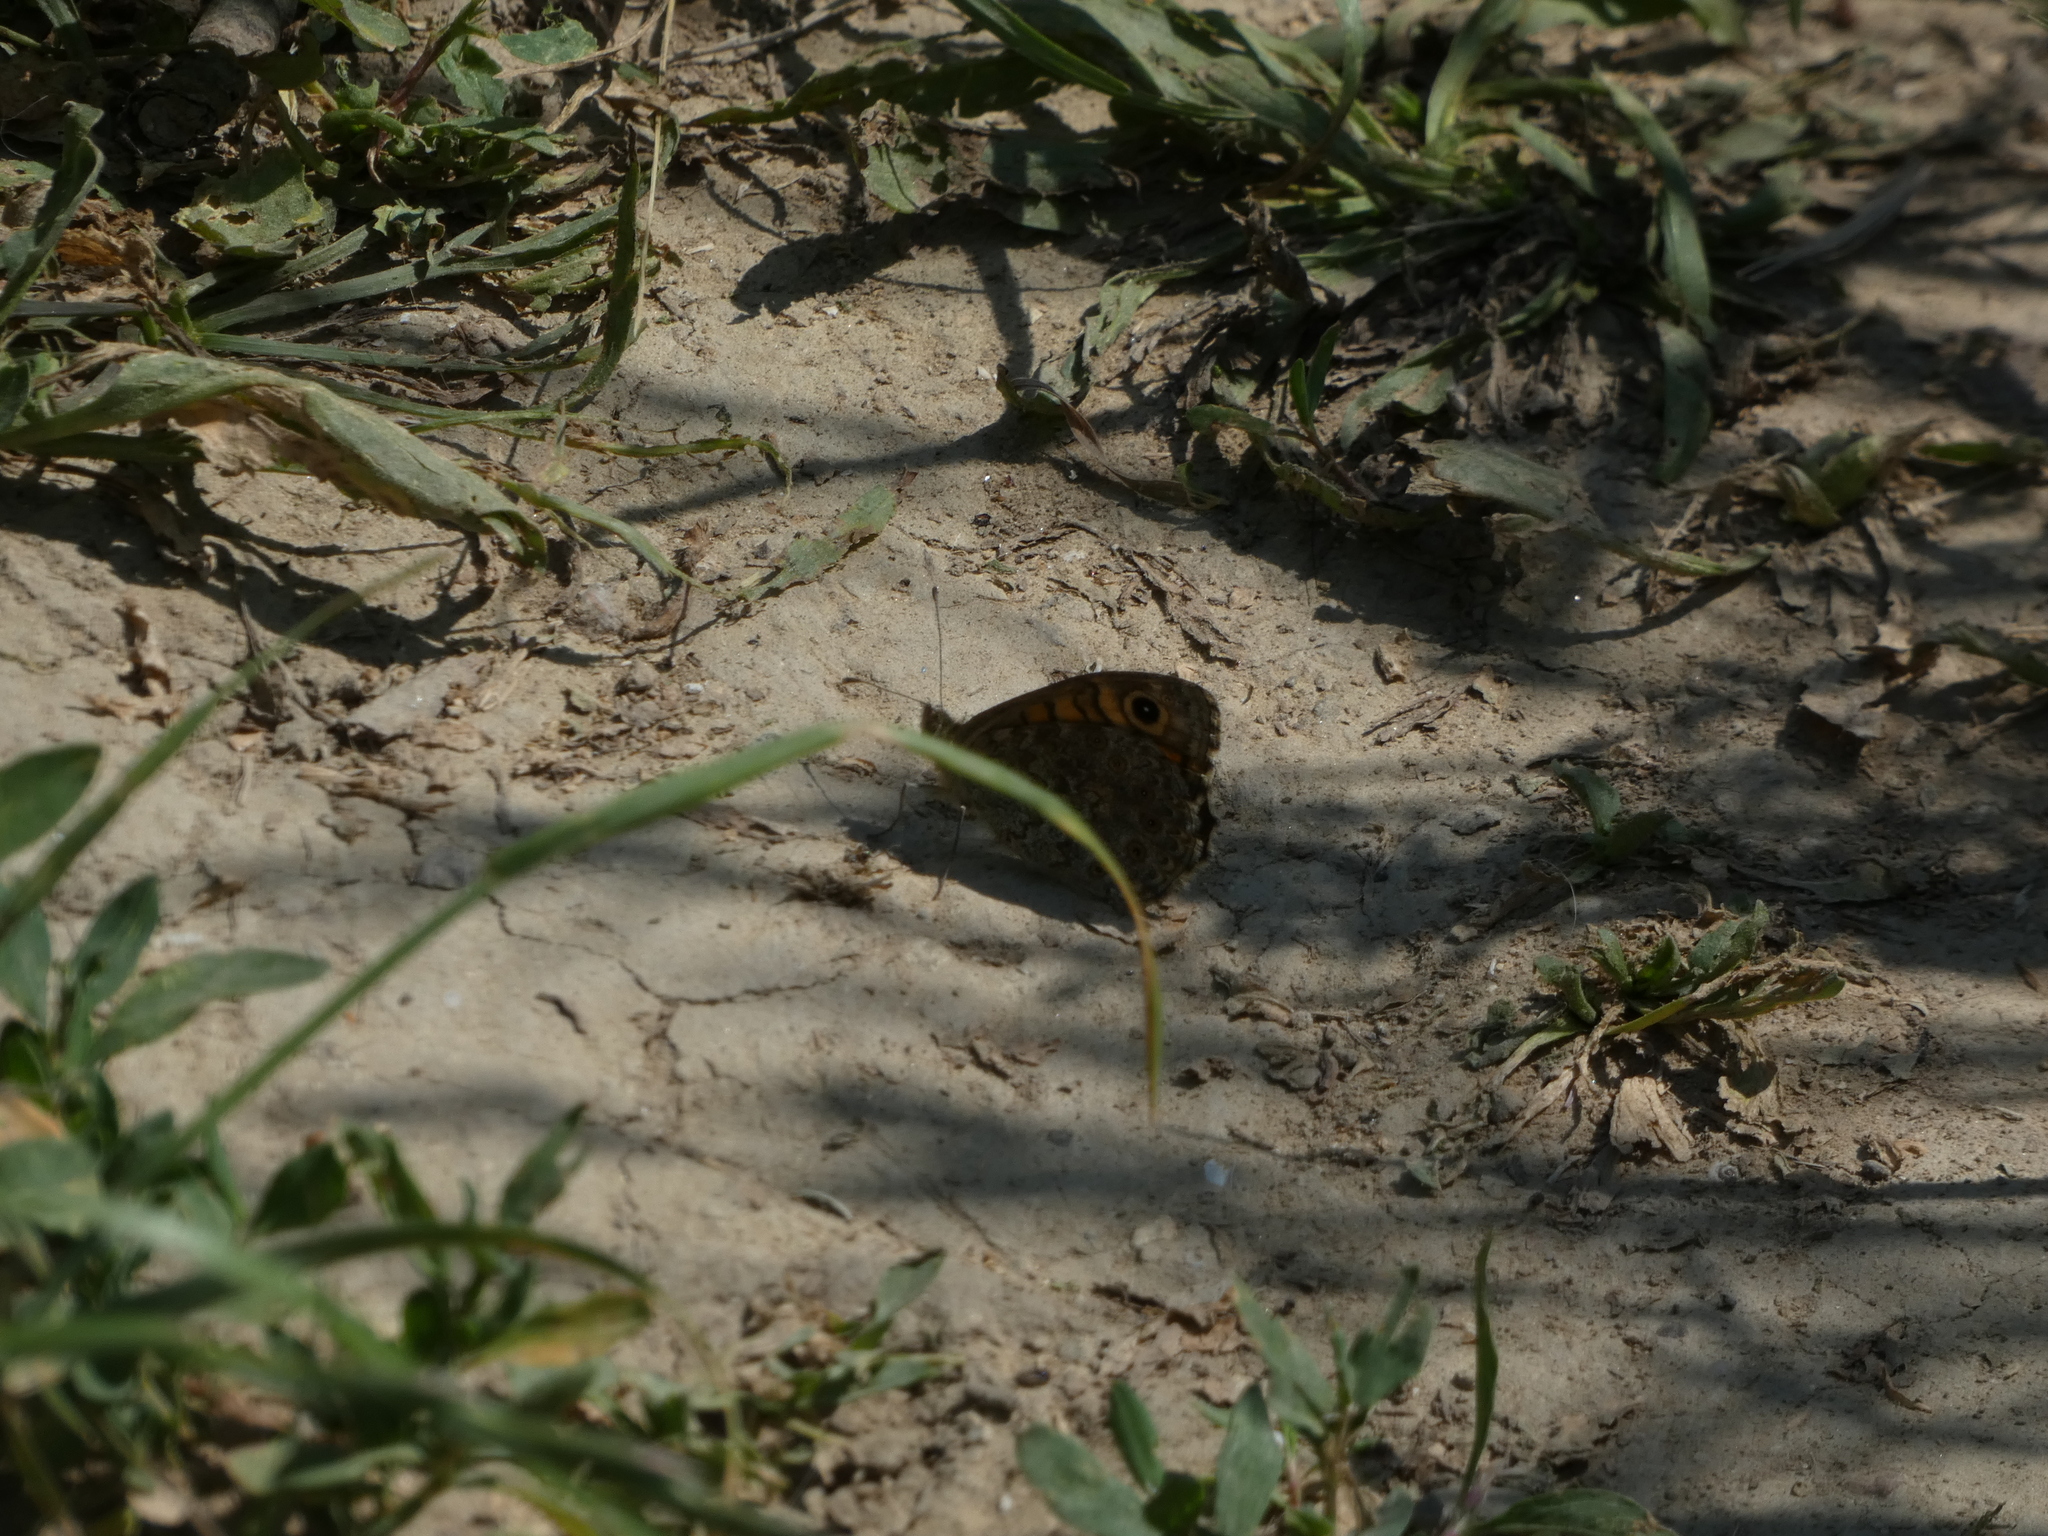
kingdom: Animalia
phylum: Arthropoda
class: Insecta
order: Lepidoptera
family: Nymphalidae
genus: Pararge
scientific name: Pararge Lasiommata megera
